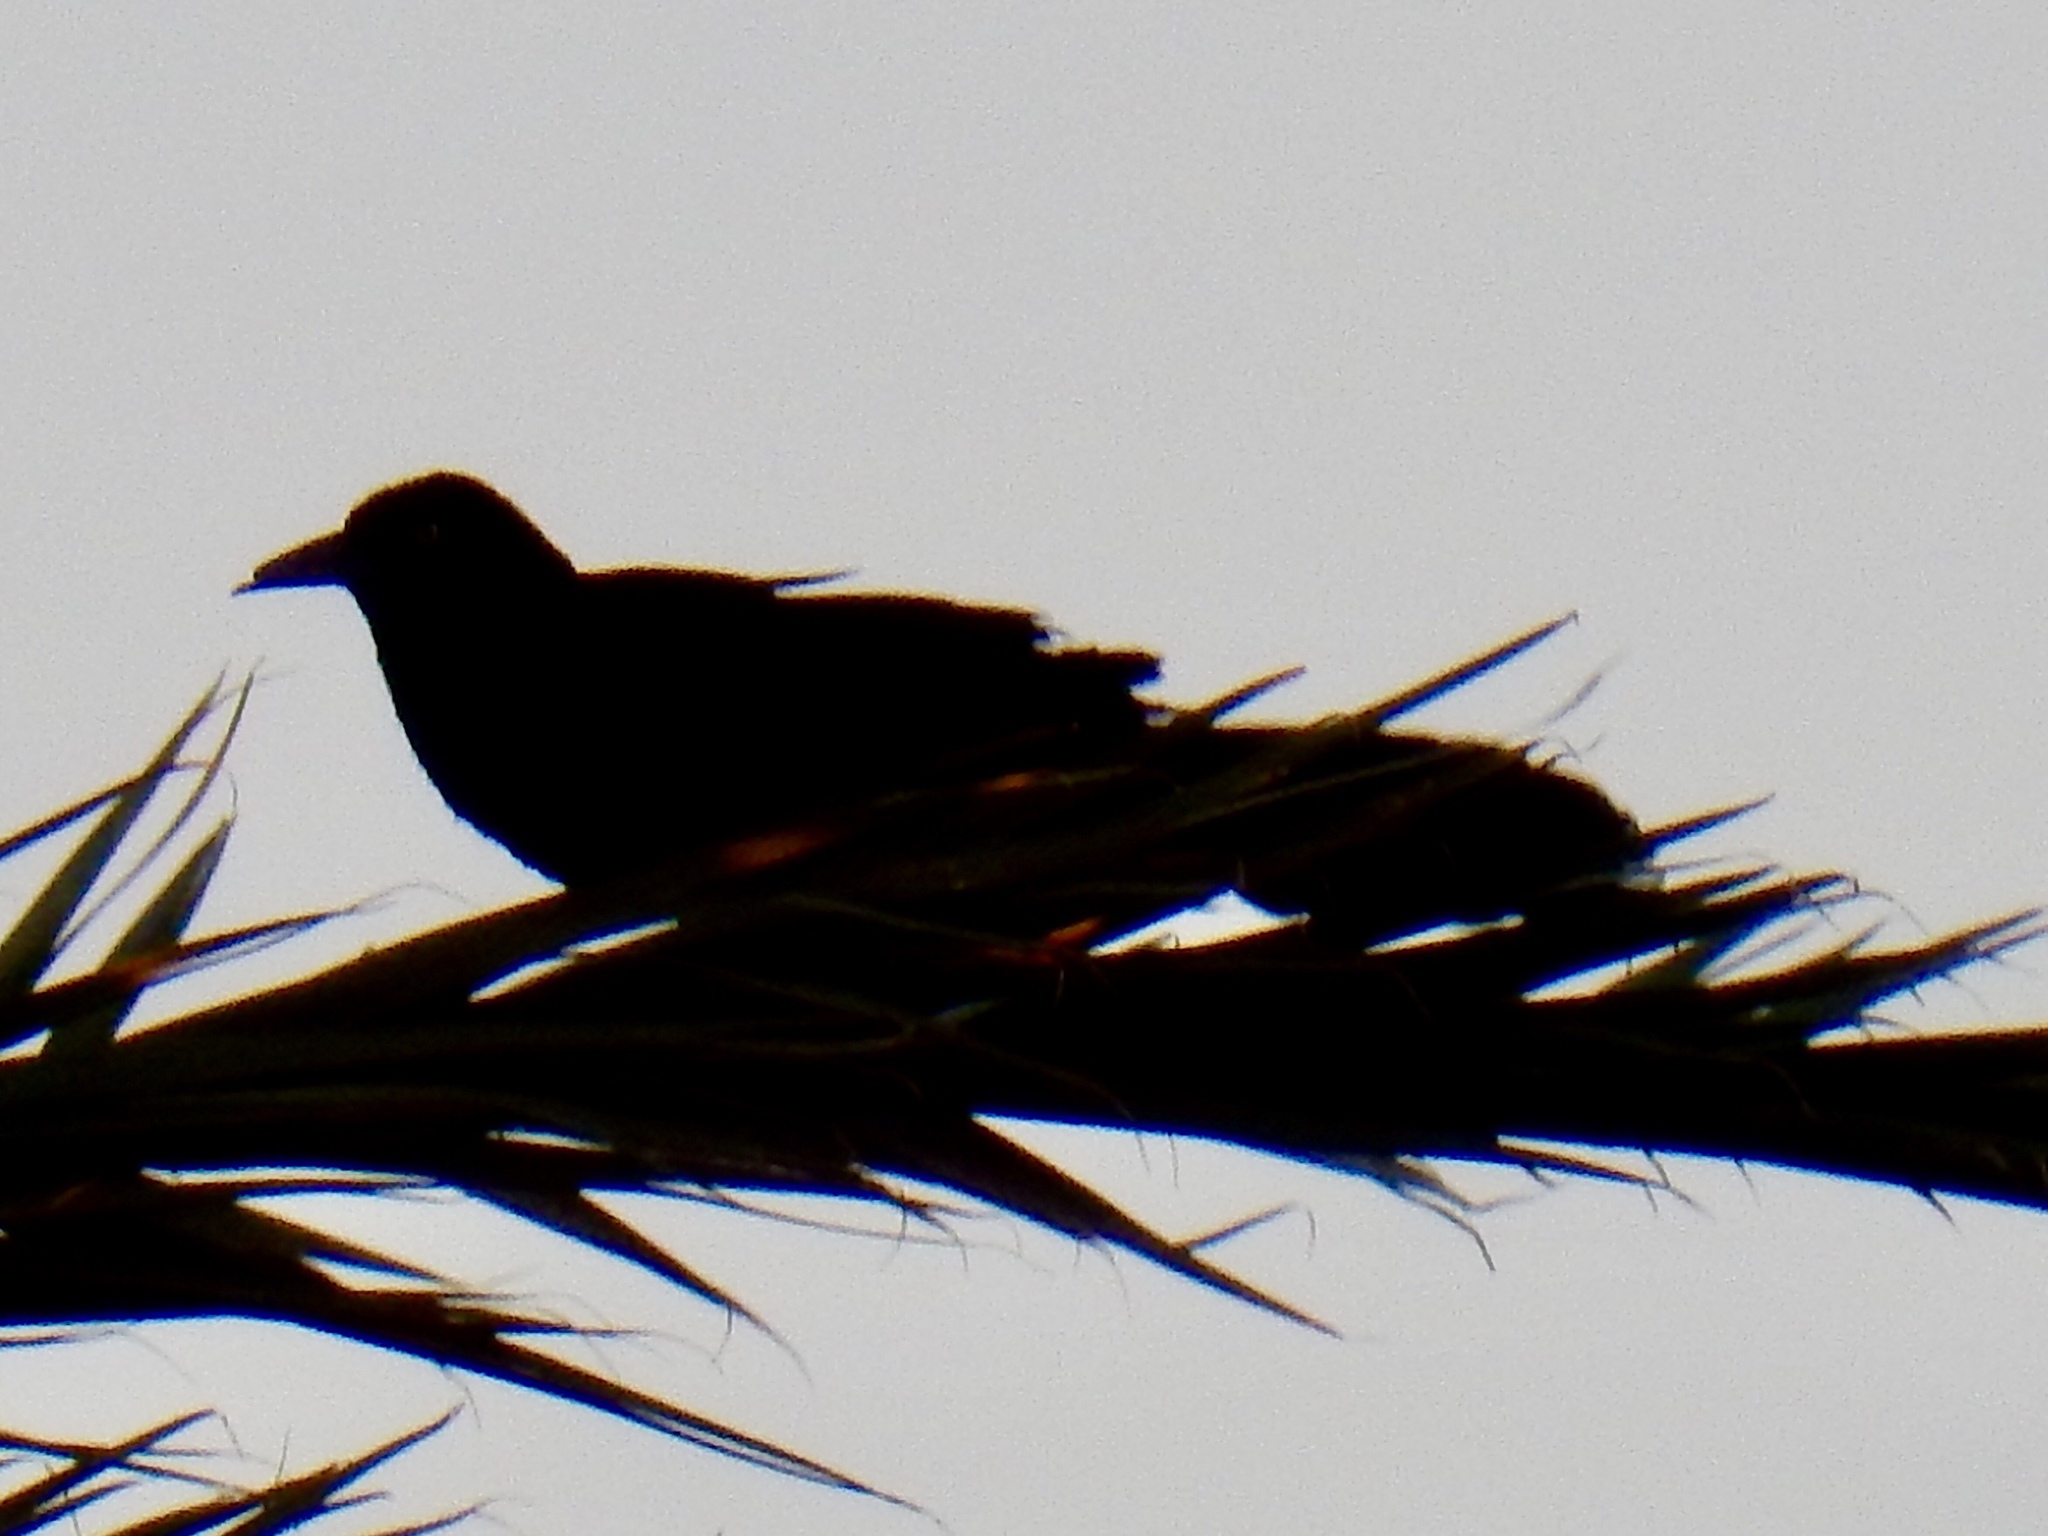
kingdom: Animalia
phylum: Chordata
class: Aves
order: Passeriformes
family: Icteridae
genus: Quiscalus
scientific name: Quiscalus mexicanus
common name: Great-tailed grackle
